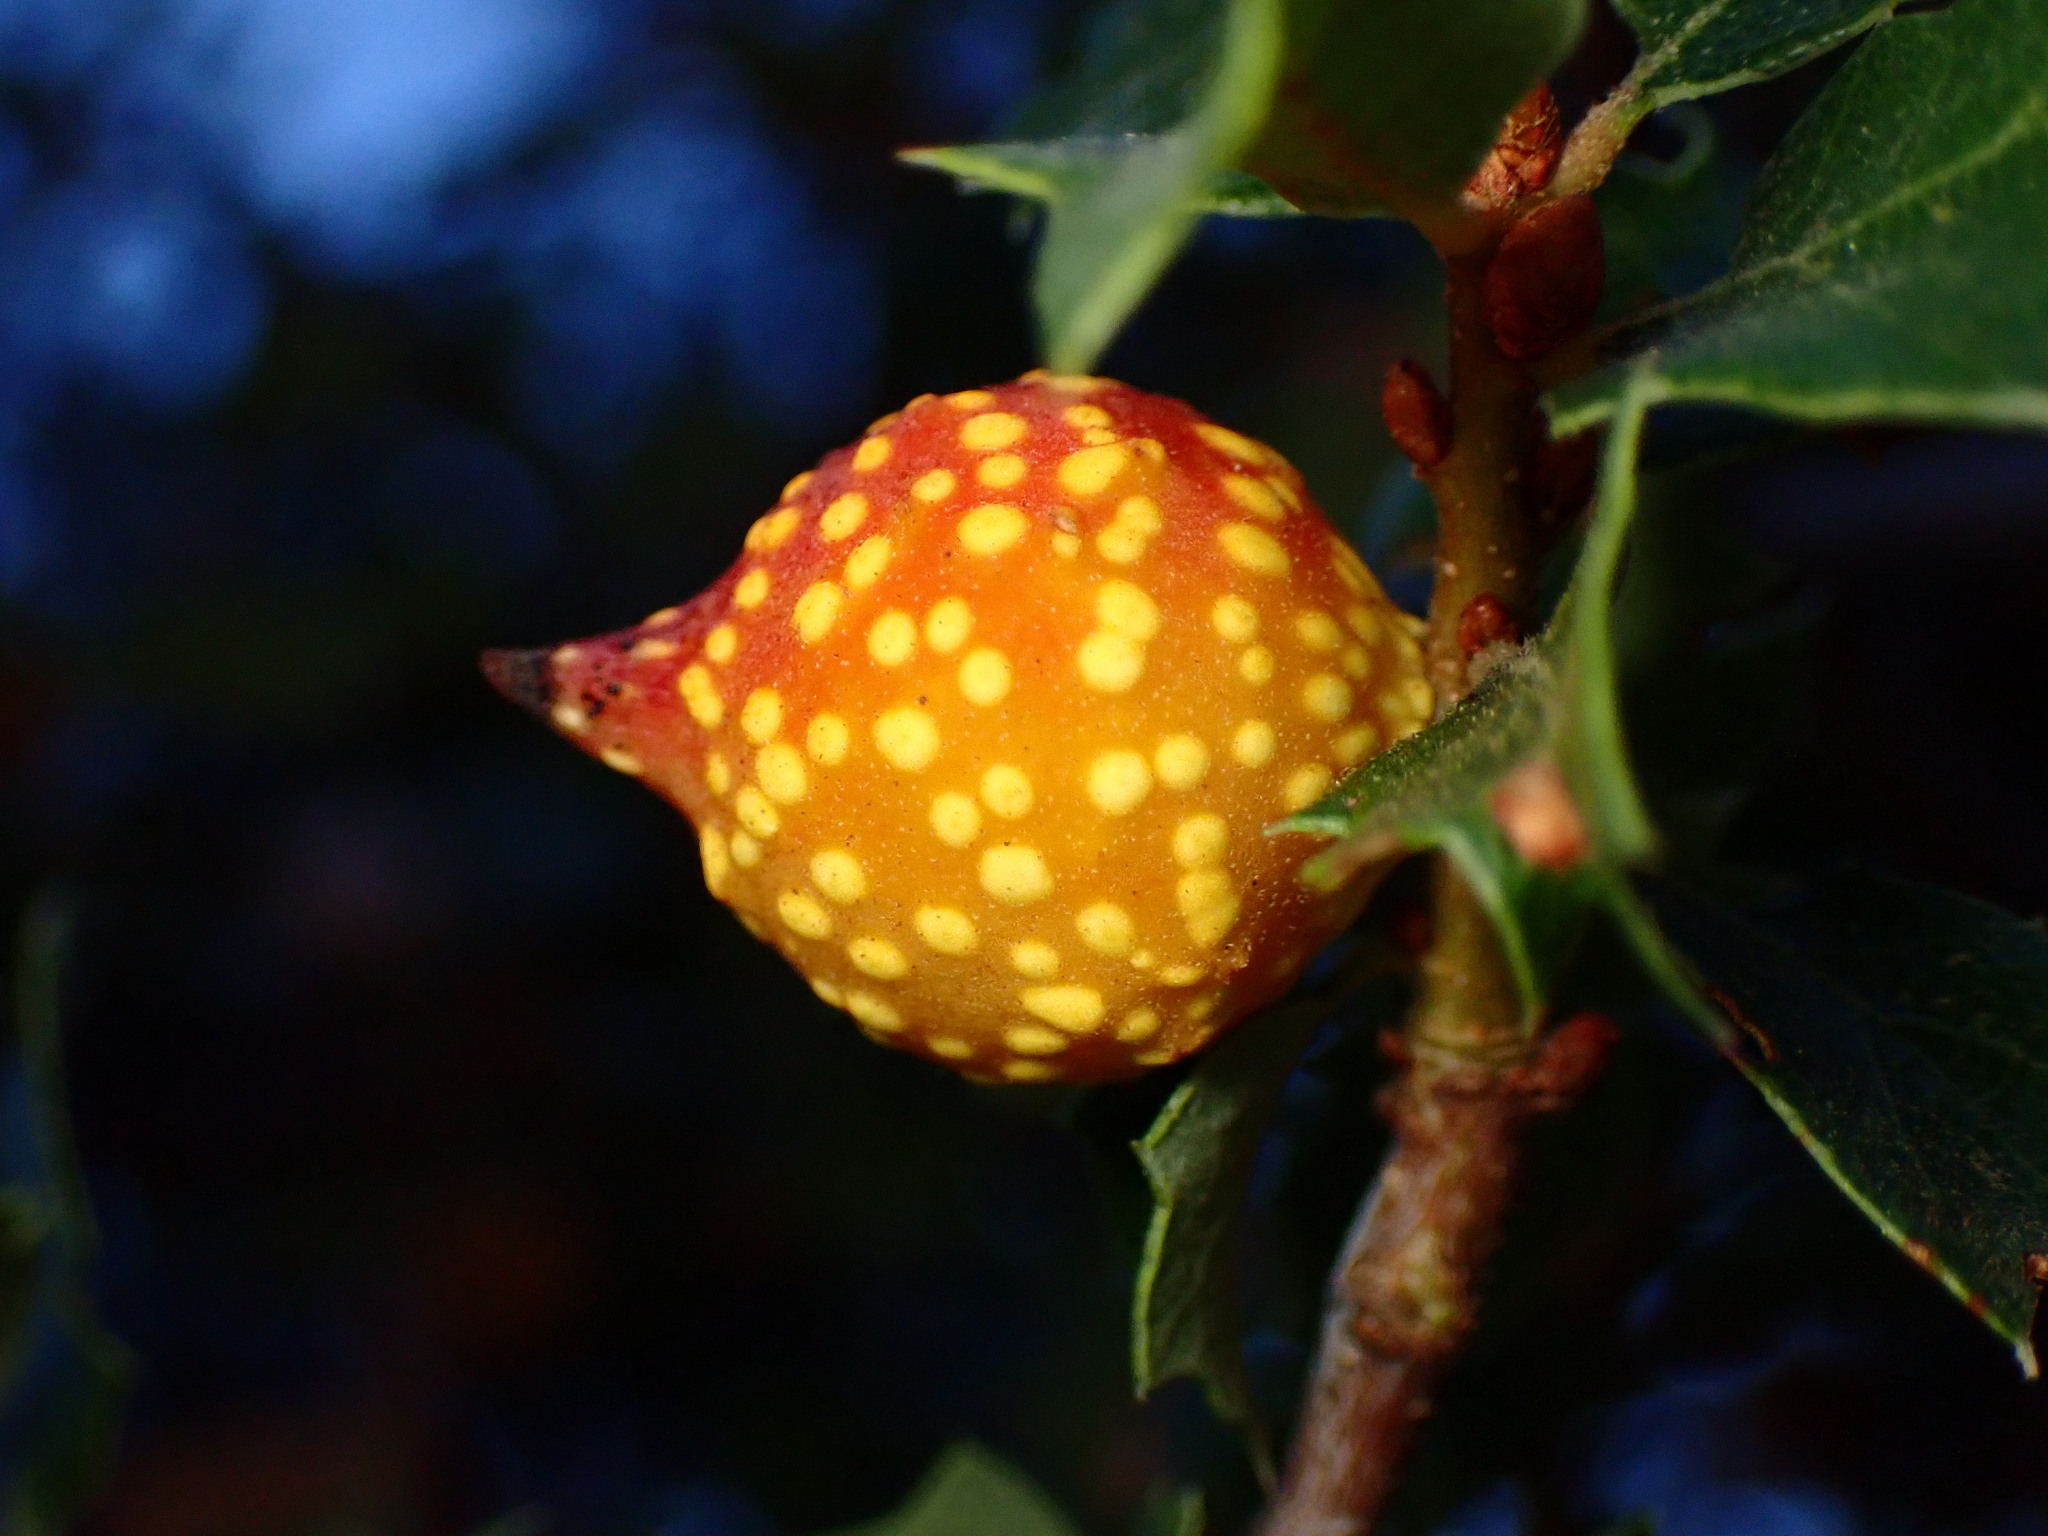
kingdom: Animalia
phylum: Arthropoda
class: Insecta
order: Hymenoptera
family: Cynipidae
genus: Burnettweldia
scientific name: Burnettweldia
